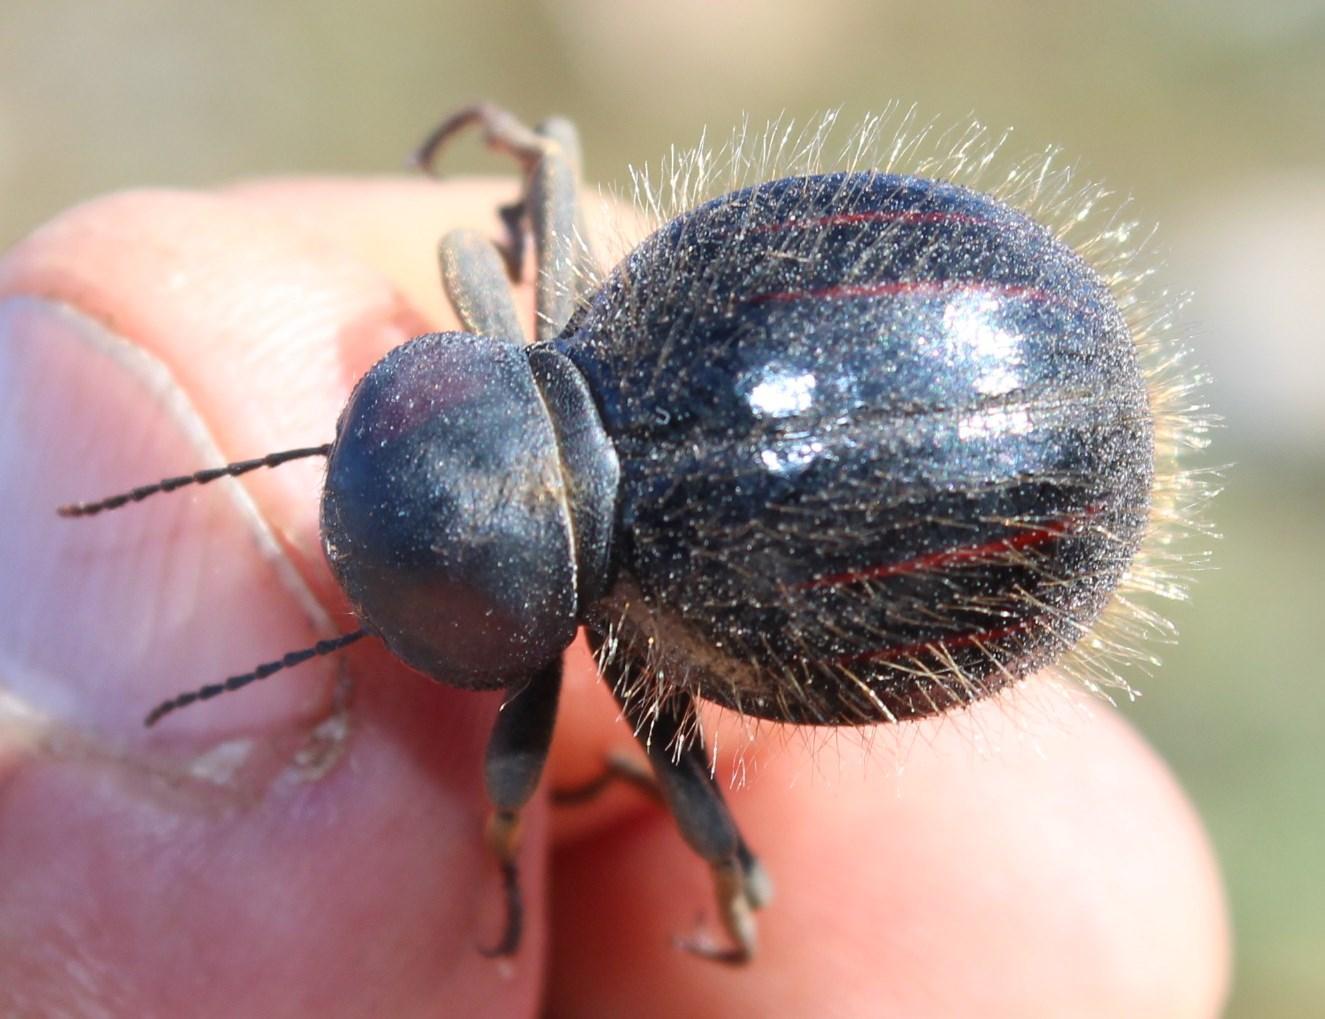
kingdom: Animalia
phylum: Arthropoda
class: Insecta
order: Coleoptera
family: Tenebrionidae
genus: Mariazofia
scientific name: Mariazofia
